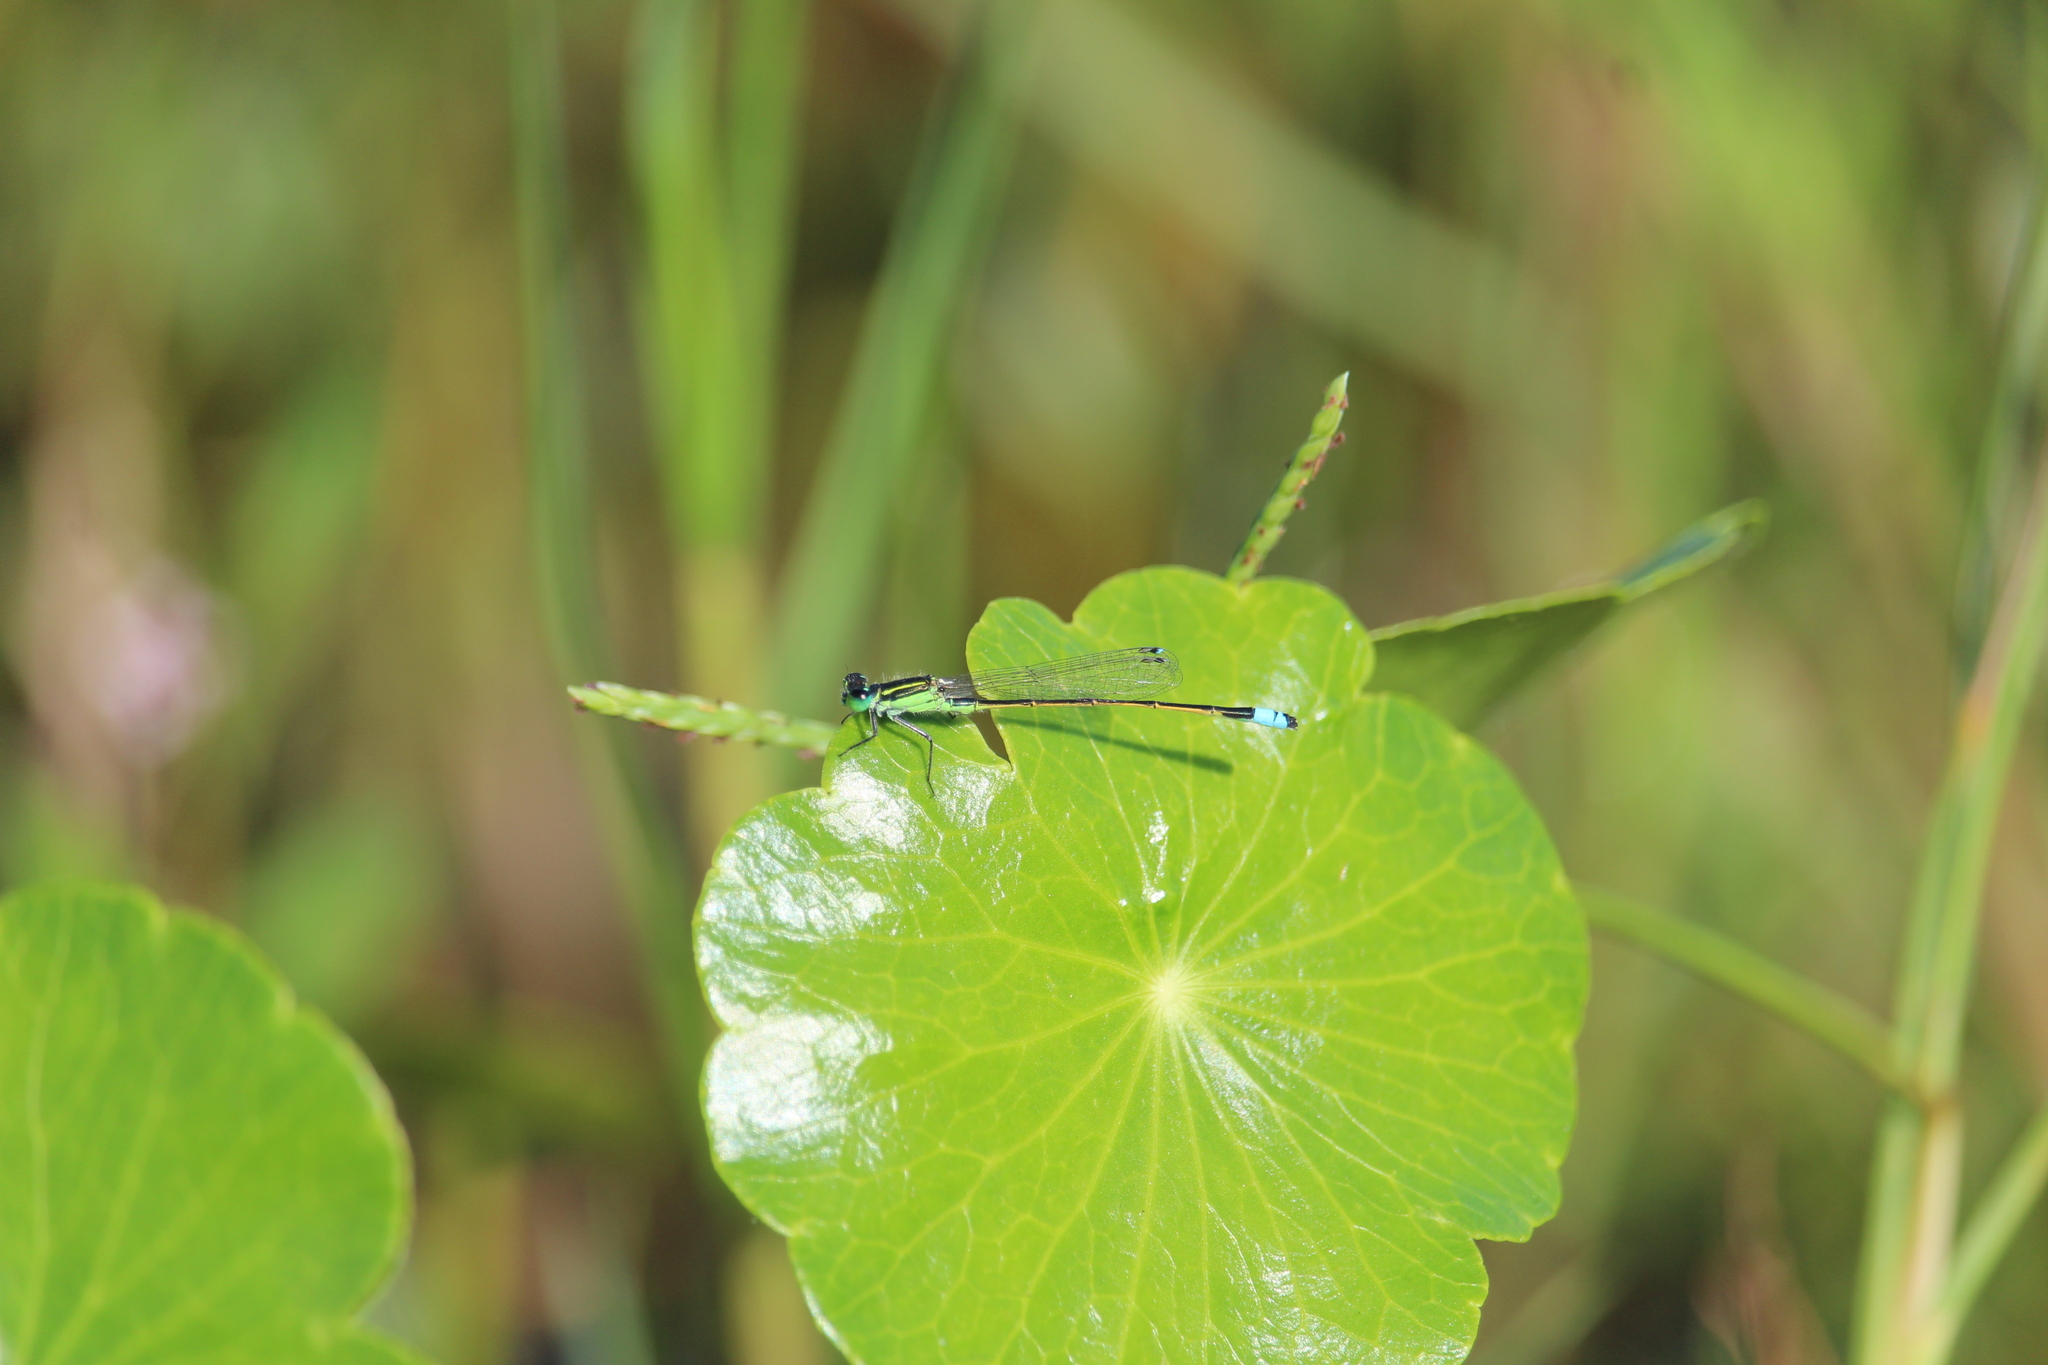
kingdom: Animalia
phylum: Arthropoda
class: Insecta
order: Odonata
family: Coenagrionidae
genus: Ischnura
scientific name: Ischnura ramburii
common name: Rambur's forktail
